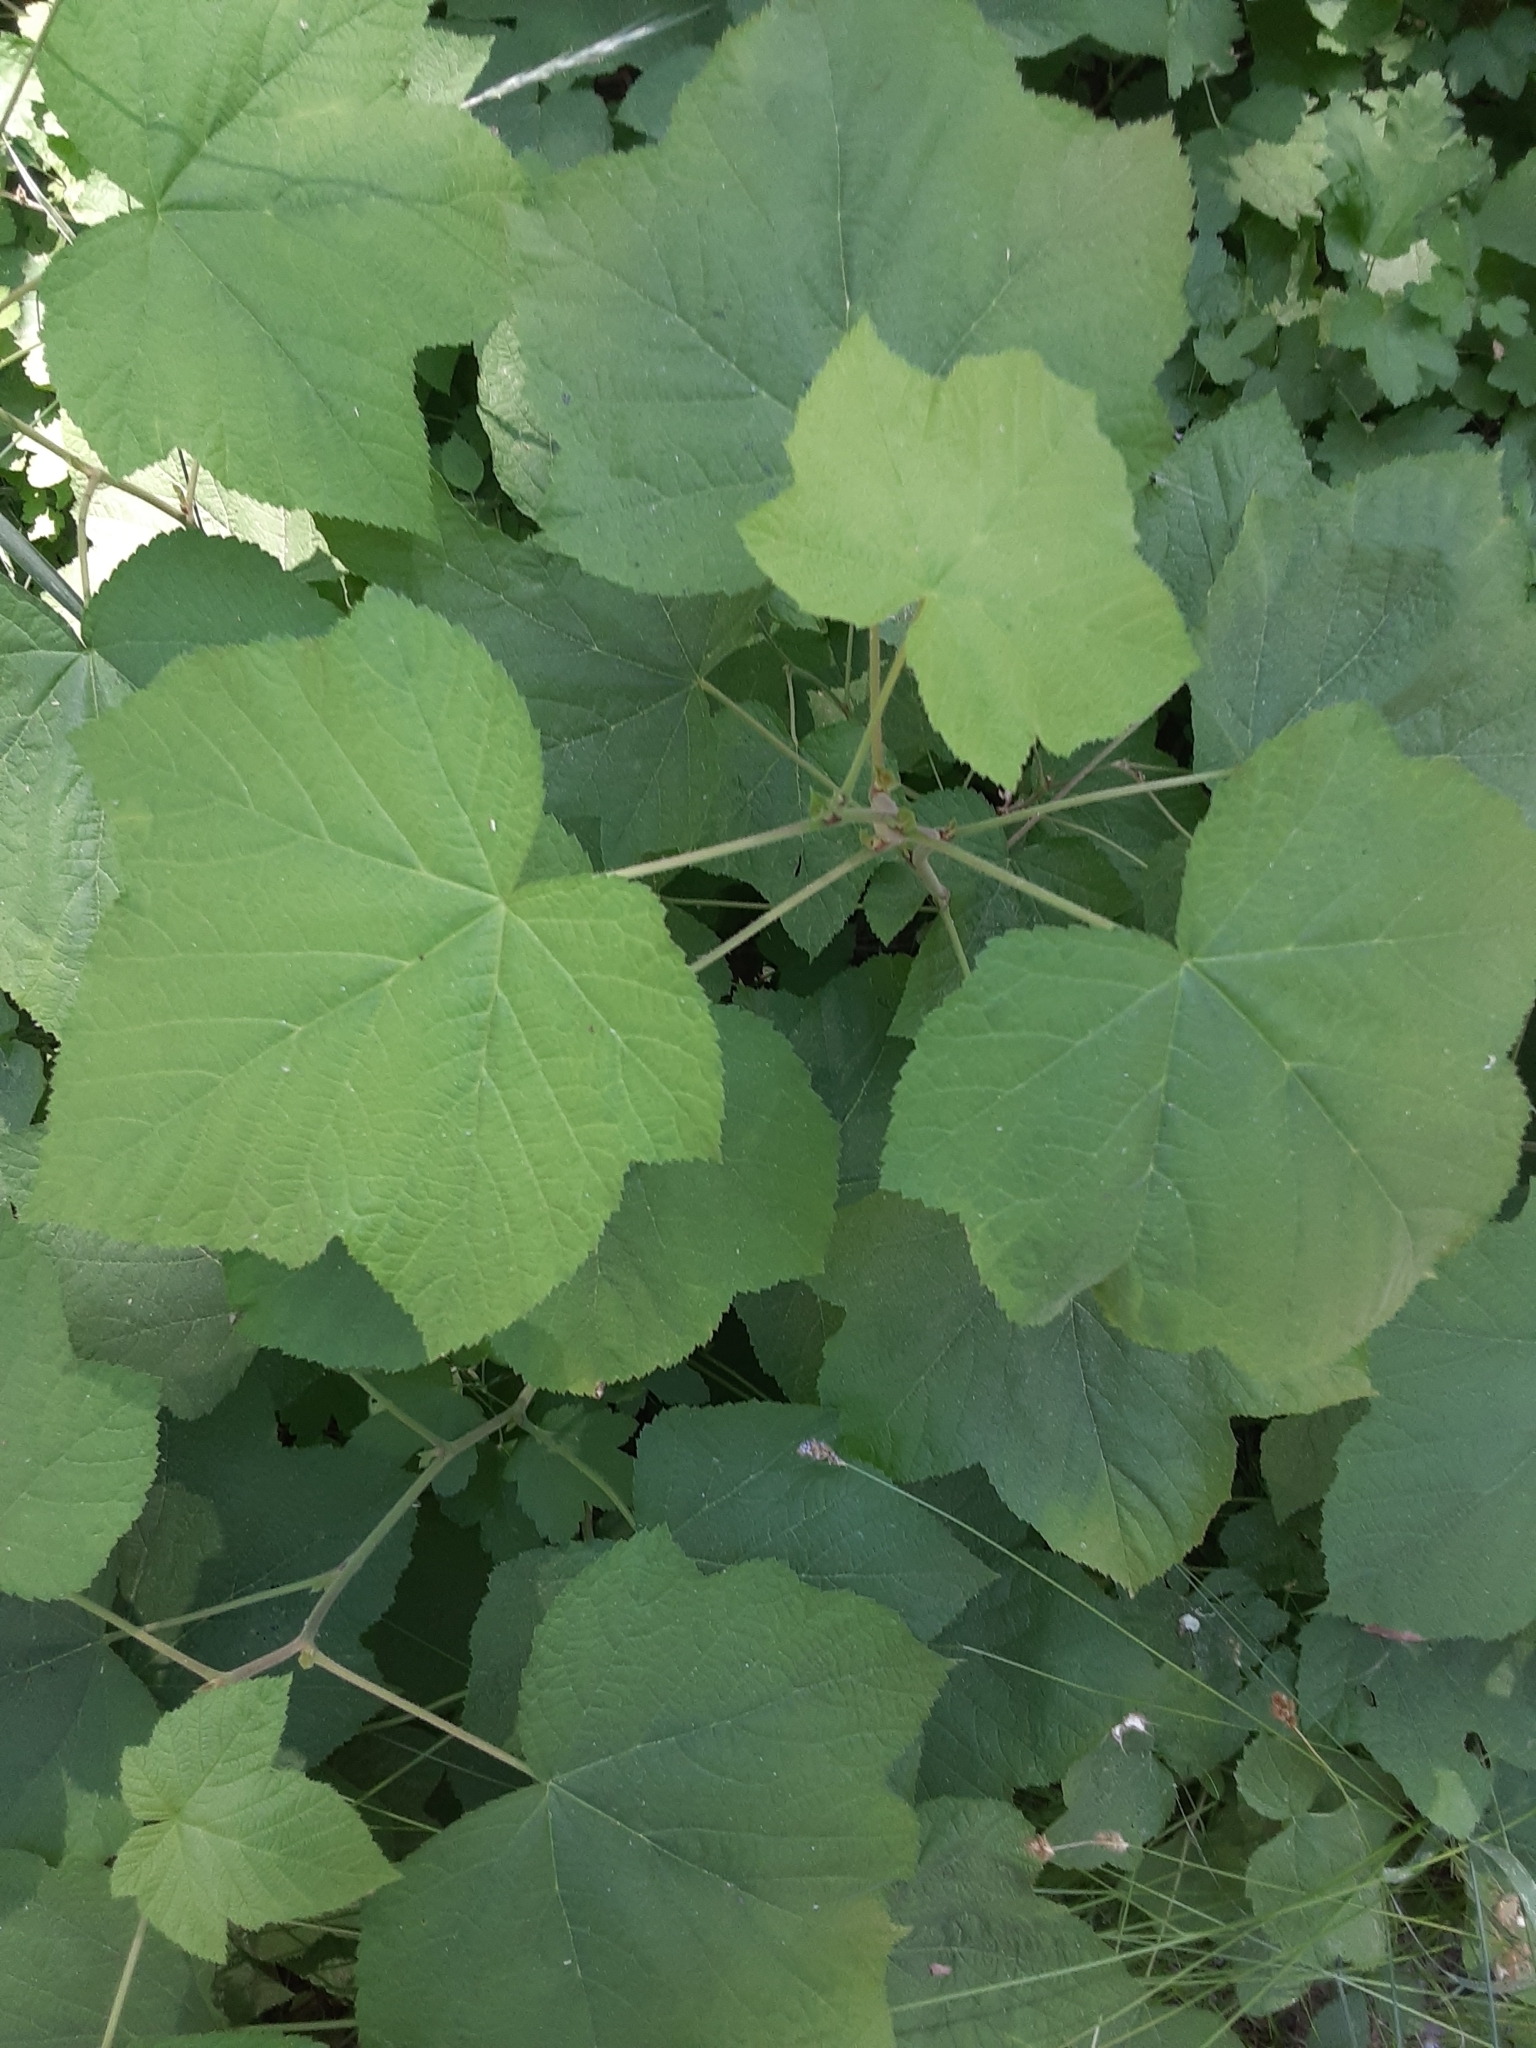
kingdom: Plantae
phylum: Tracheophyta
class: Magnoliopsida
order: Rosales
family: Rosaceae
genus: Rubus
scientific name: Rubus parviflorus
